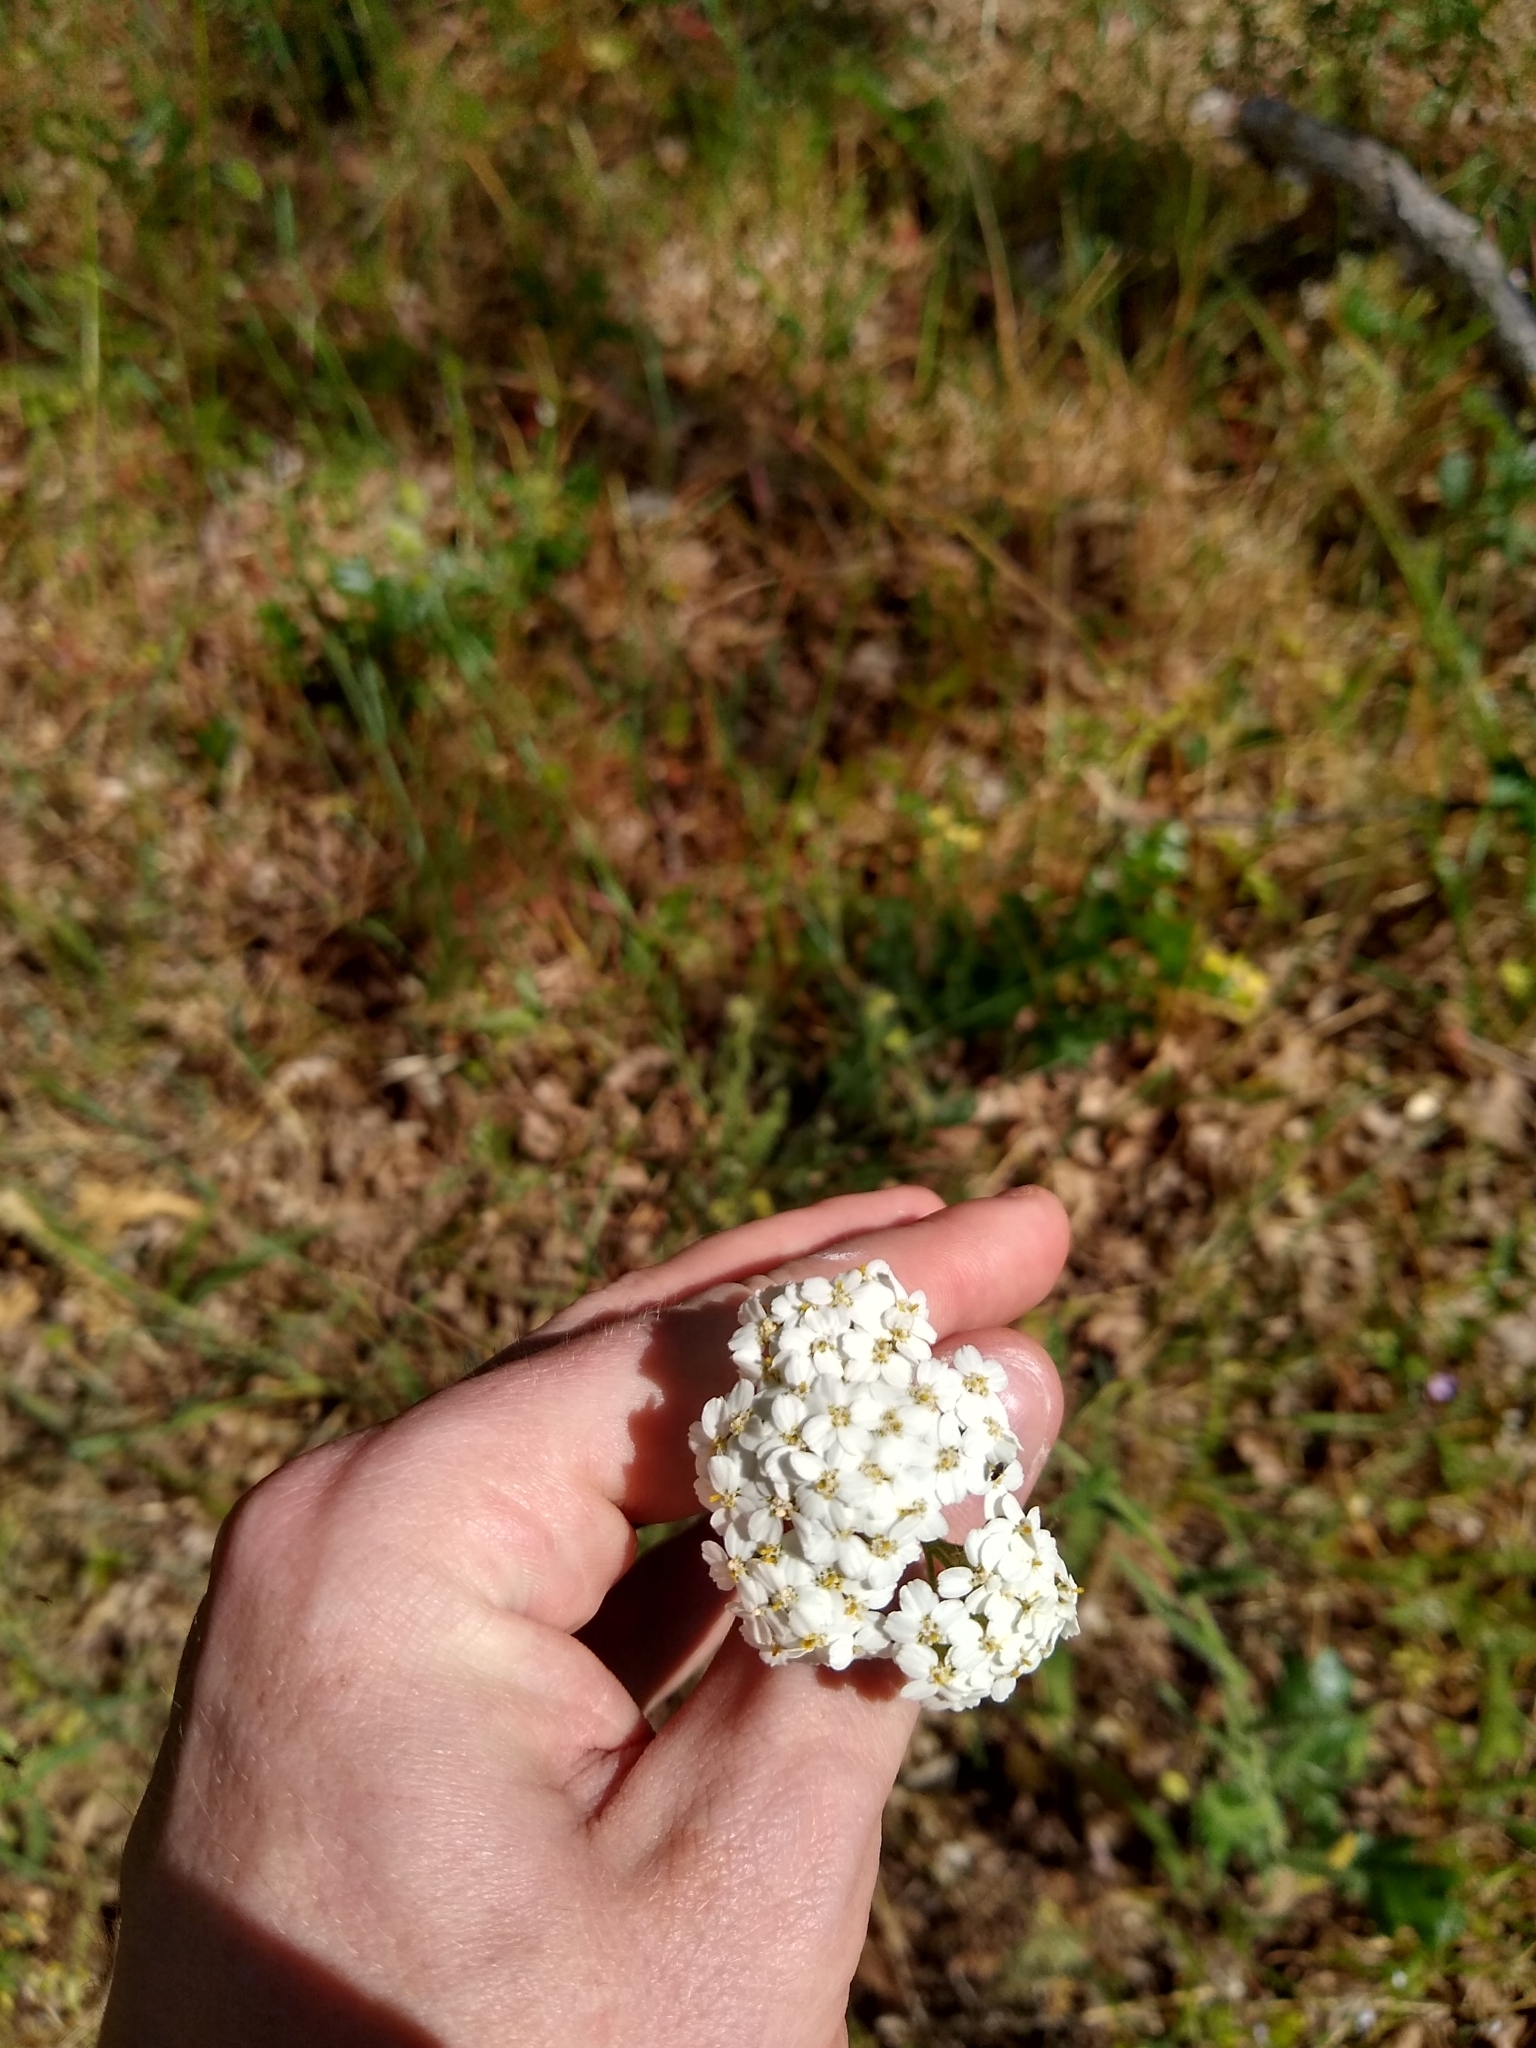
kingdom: Plantae
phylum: Tracheophyta
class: Magnoliopsida
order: Asterales
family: Asteraceae
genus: Achillea
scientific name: Achillea millefolium
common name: Yarrow
